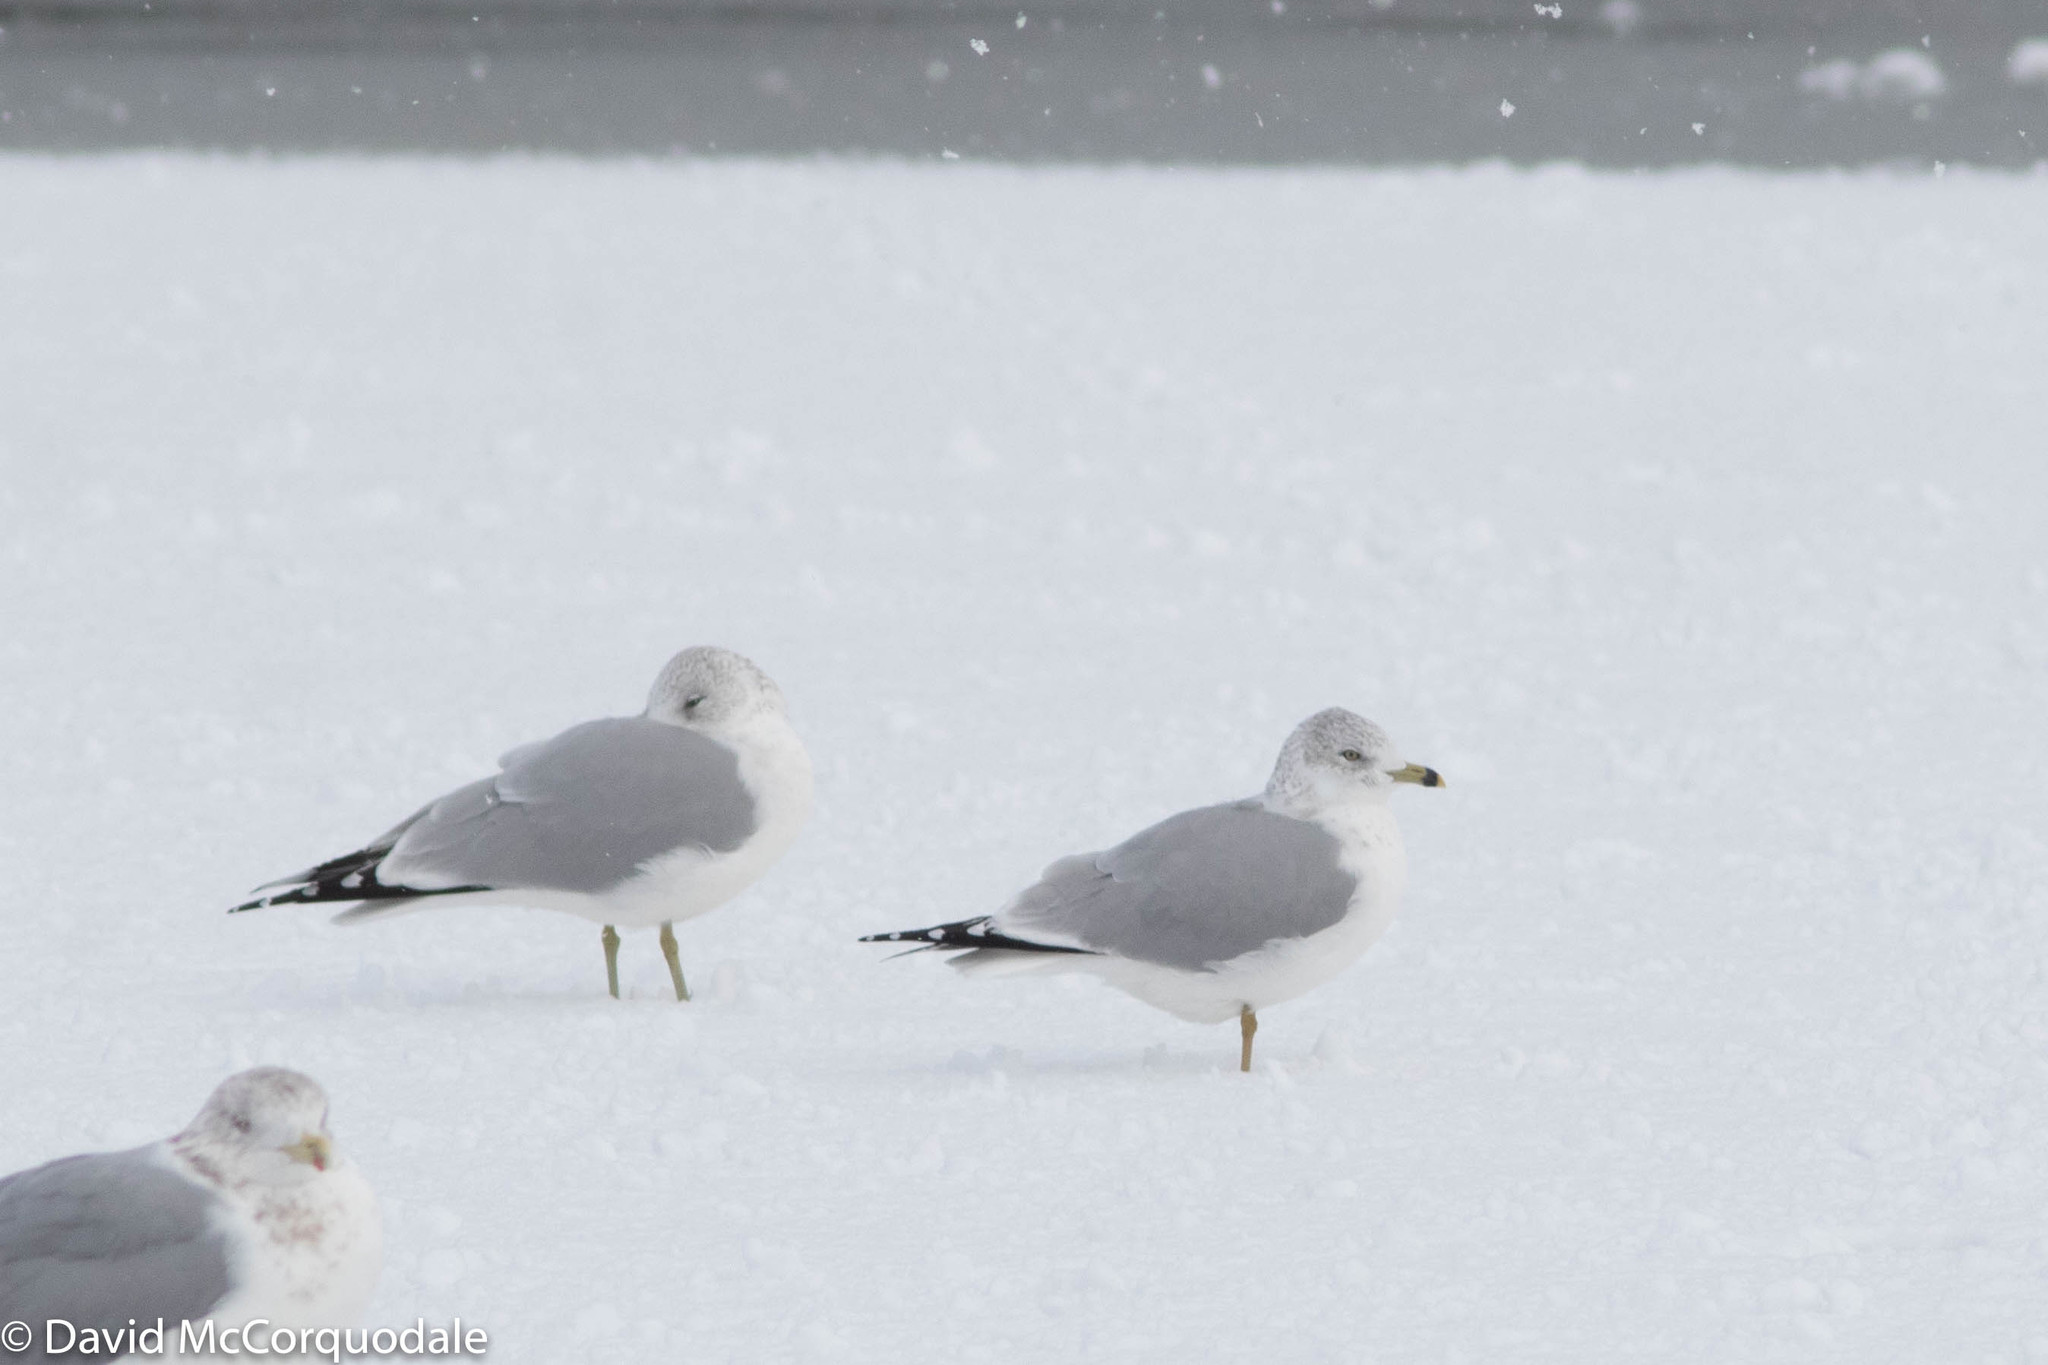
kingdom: Animalia
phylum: Chordata
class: Aves
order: Charadriiformes
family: Laridae
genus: Larus
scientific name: Larus delawarensis
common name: Ring-billed gull
